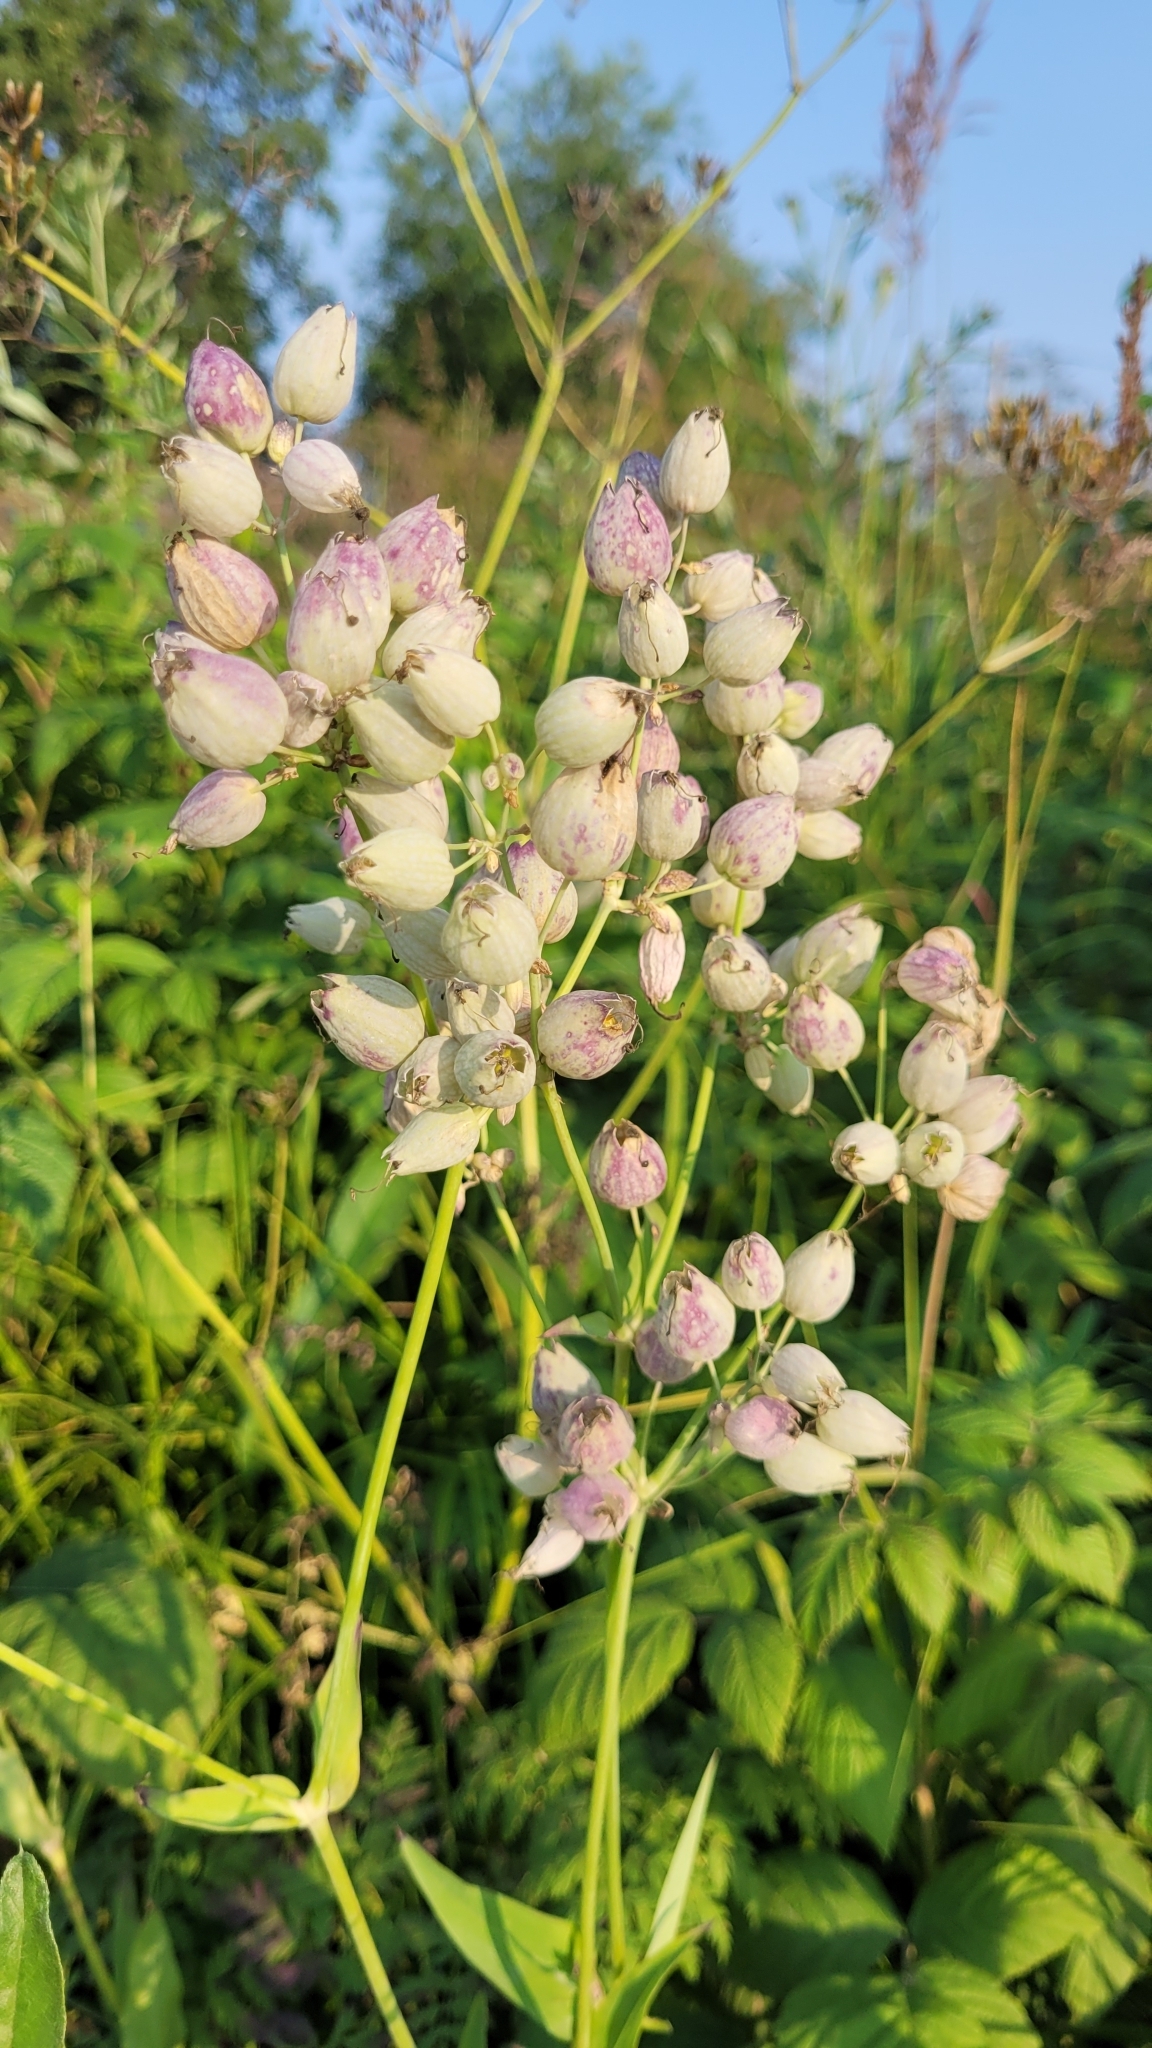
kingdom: Plantae
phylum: Tracheophyta
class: Magnoliopsida
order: Caryophyllales
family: Caryophyllaceae
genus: Silene
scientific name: Silene vulgaris
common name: Bladder campion
